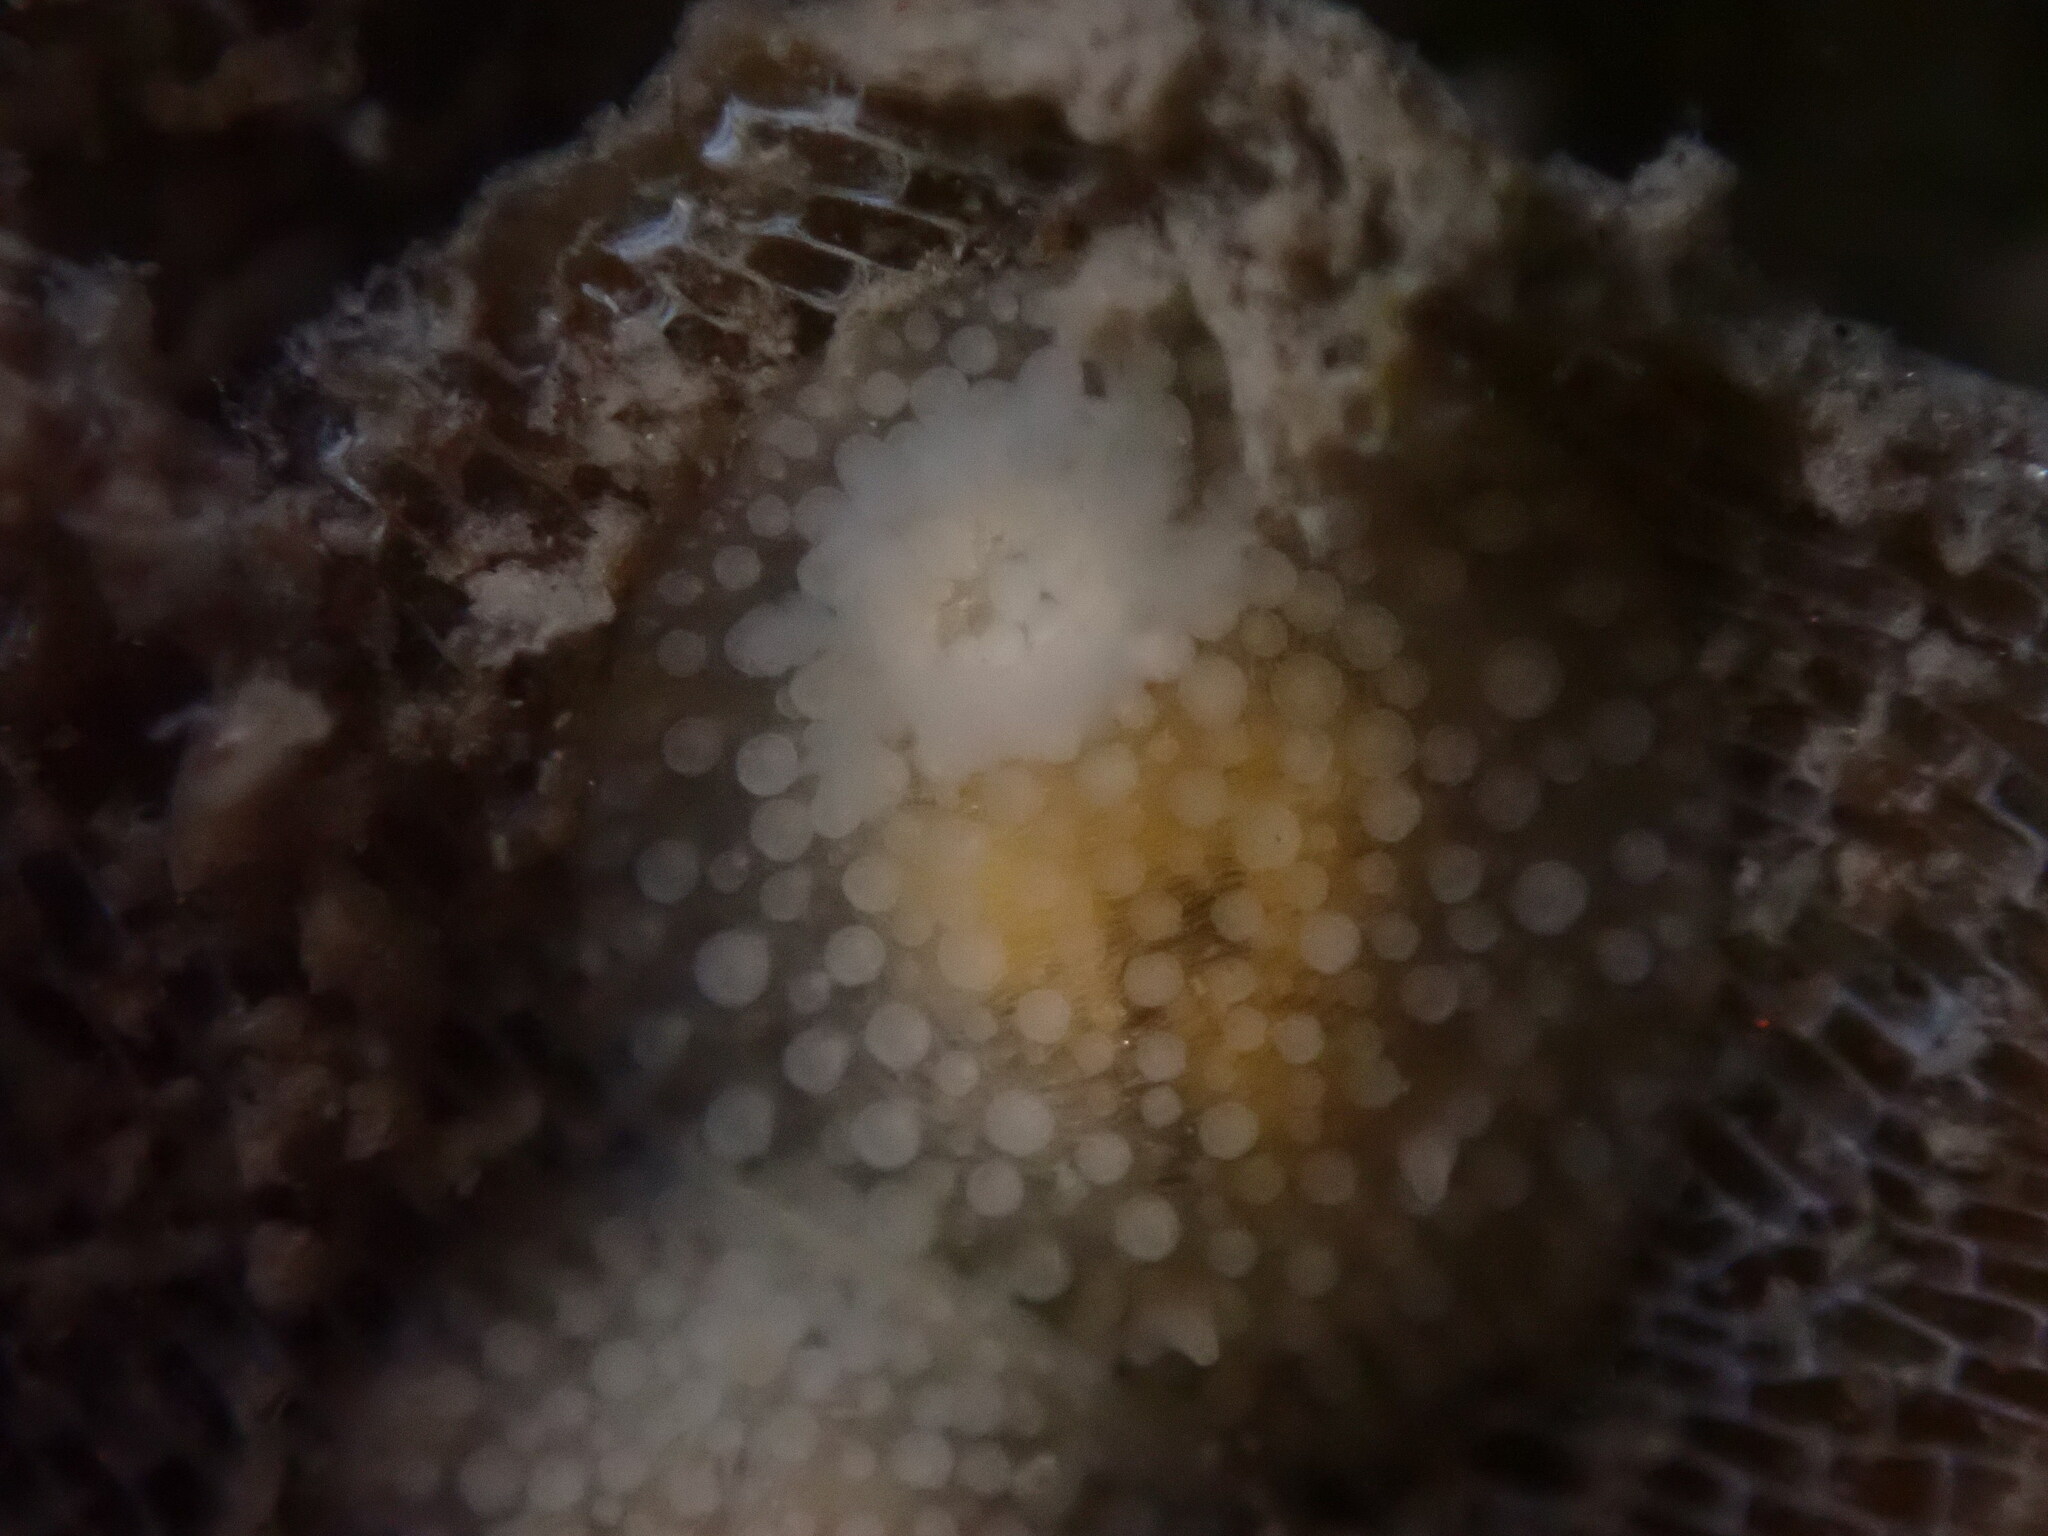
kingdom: Animalia
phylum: Mollusca
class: Gastropoda
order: Nudibranchia
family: Onchidorididae
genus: Onchidoris
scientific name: Onchidoris muricata
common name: Rough doris
